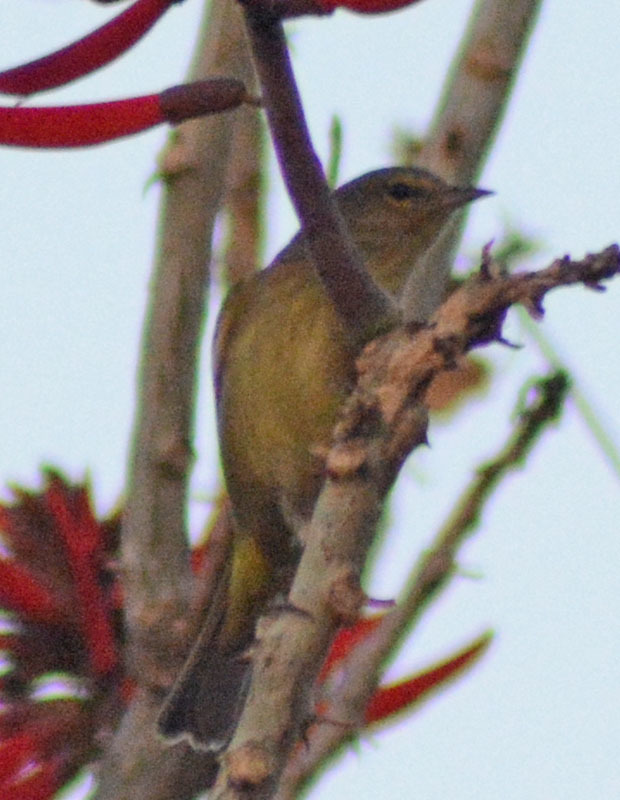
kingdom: Animalia
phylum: Chordata
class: Aves
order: Passeriformes
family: Parulidae
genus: Leiothlypis
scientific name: Leiothlypis celata
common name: Orange-crowned warbler
